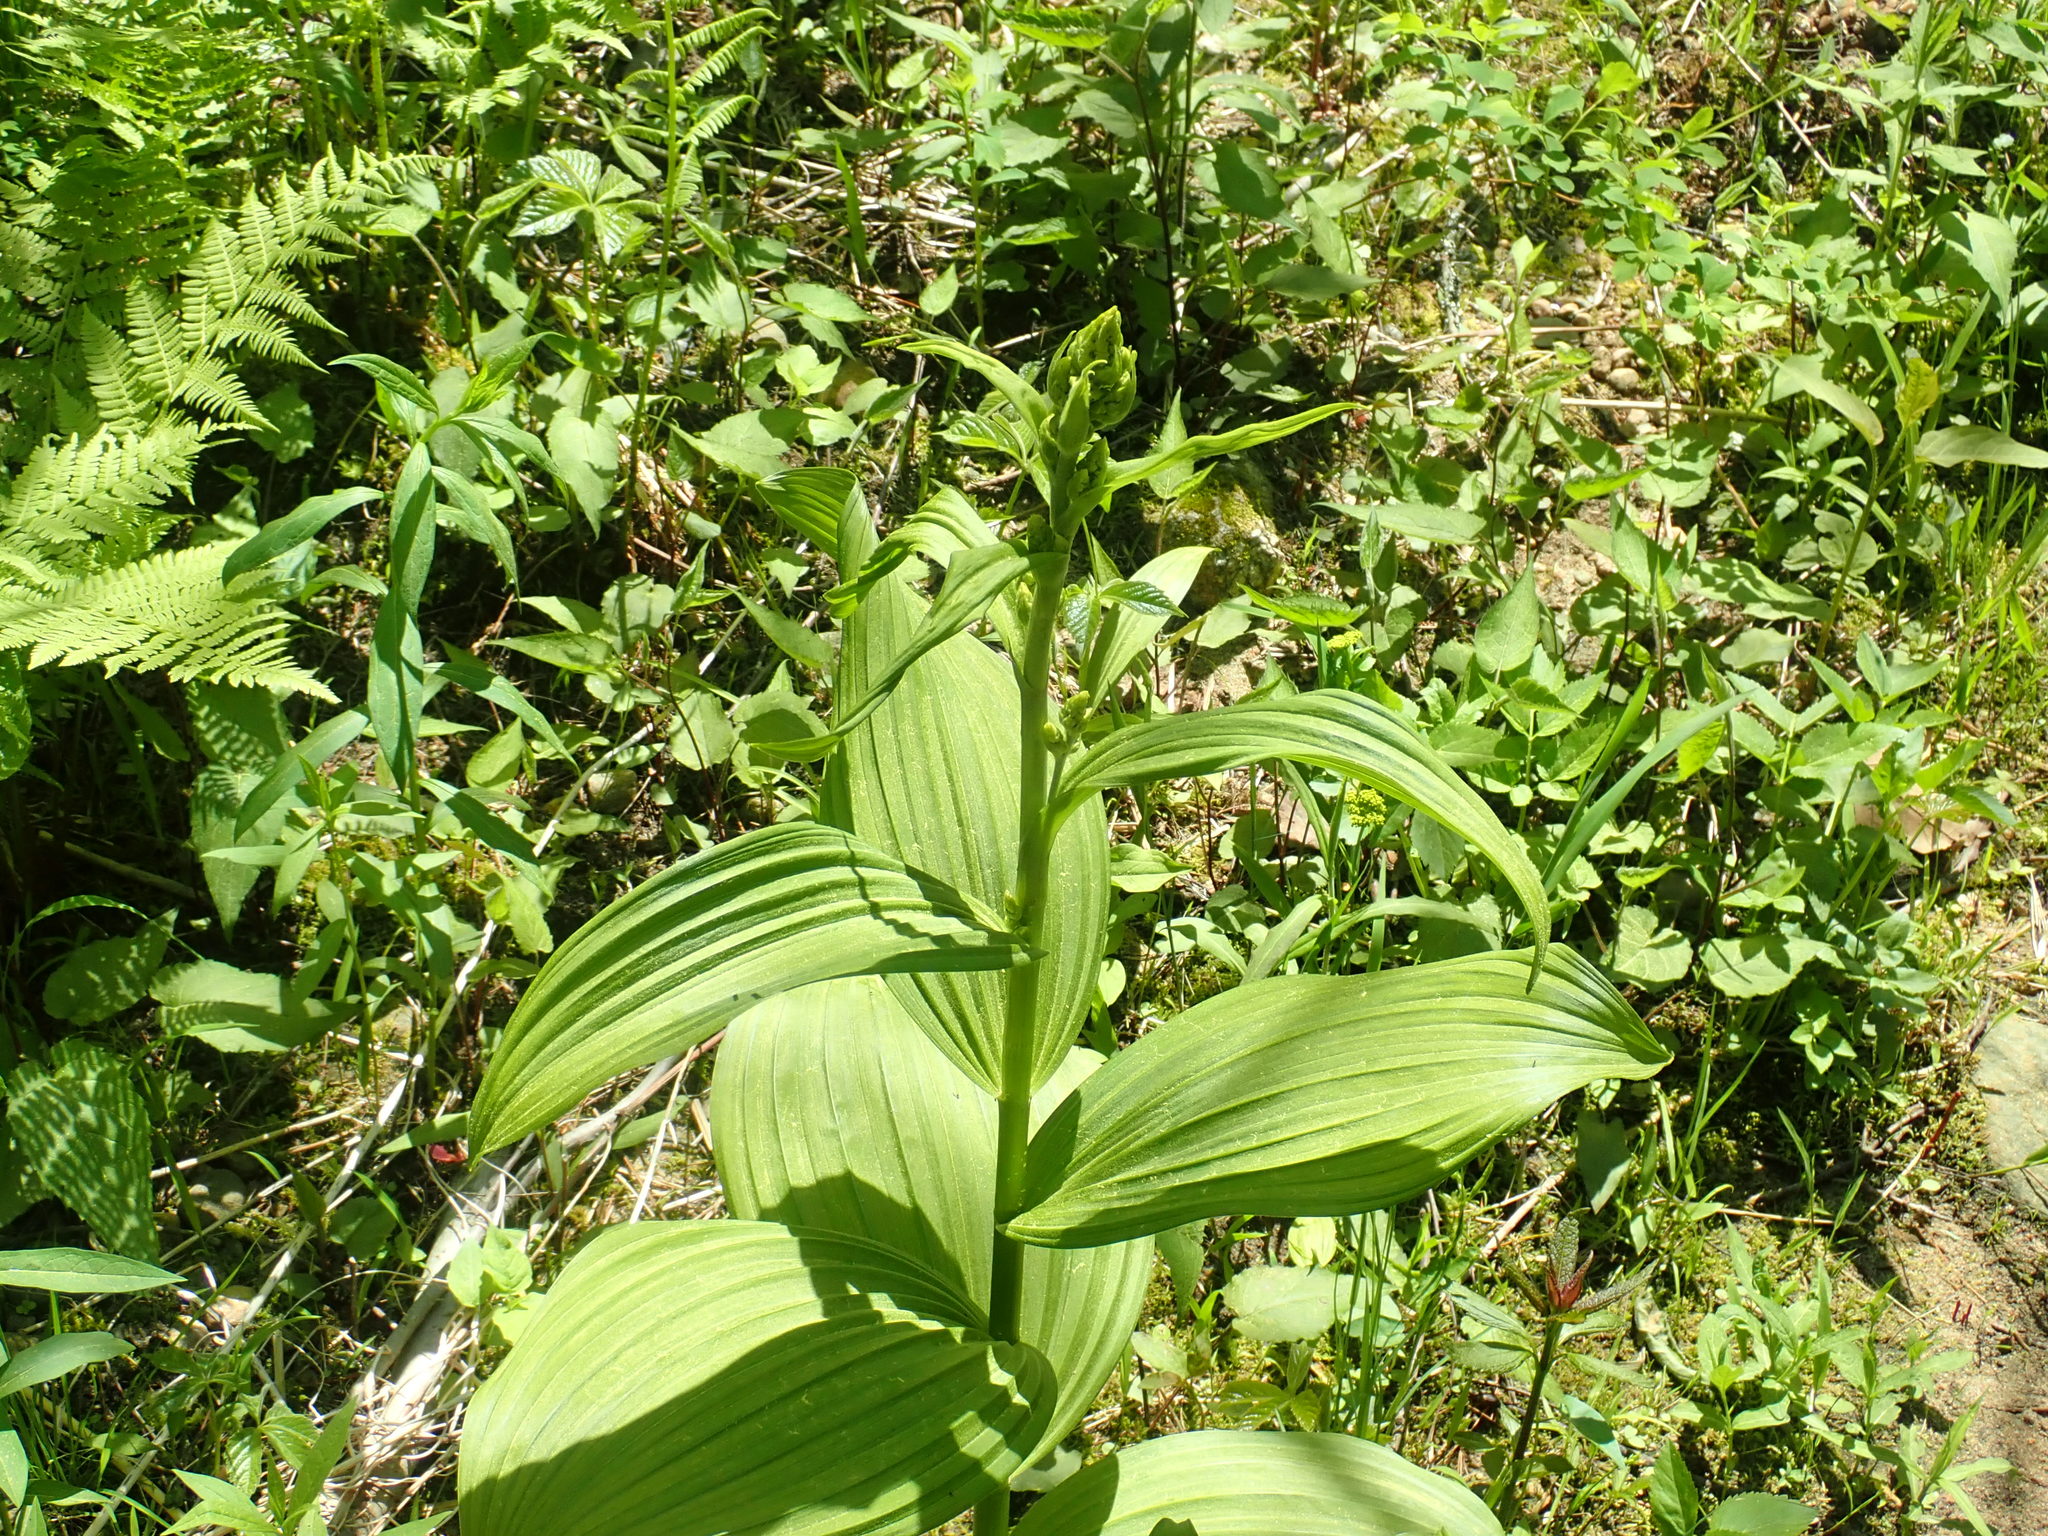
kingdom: Plantae
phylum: Tracheophyta
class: Liliopsida
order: Liliales
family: Melanthiaceae
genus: Veratrum
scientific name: Veratrum viride
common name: American false hellebore
